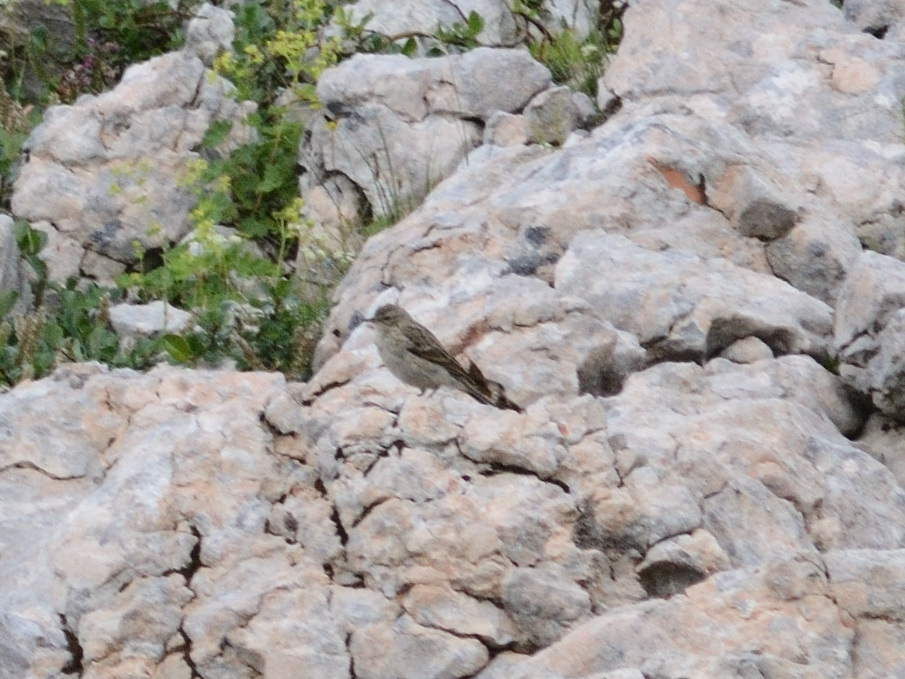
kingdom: Animalia
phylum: Chordata
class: Aves
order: Passeriformes
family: Motacillidae
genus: Anthus
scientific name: Anthus spinoletta
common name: Water pipit
